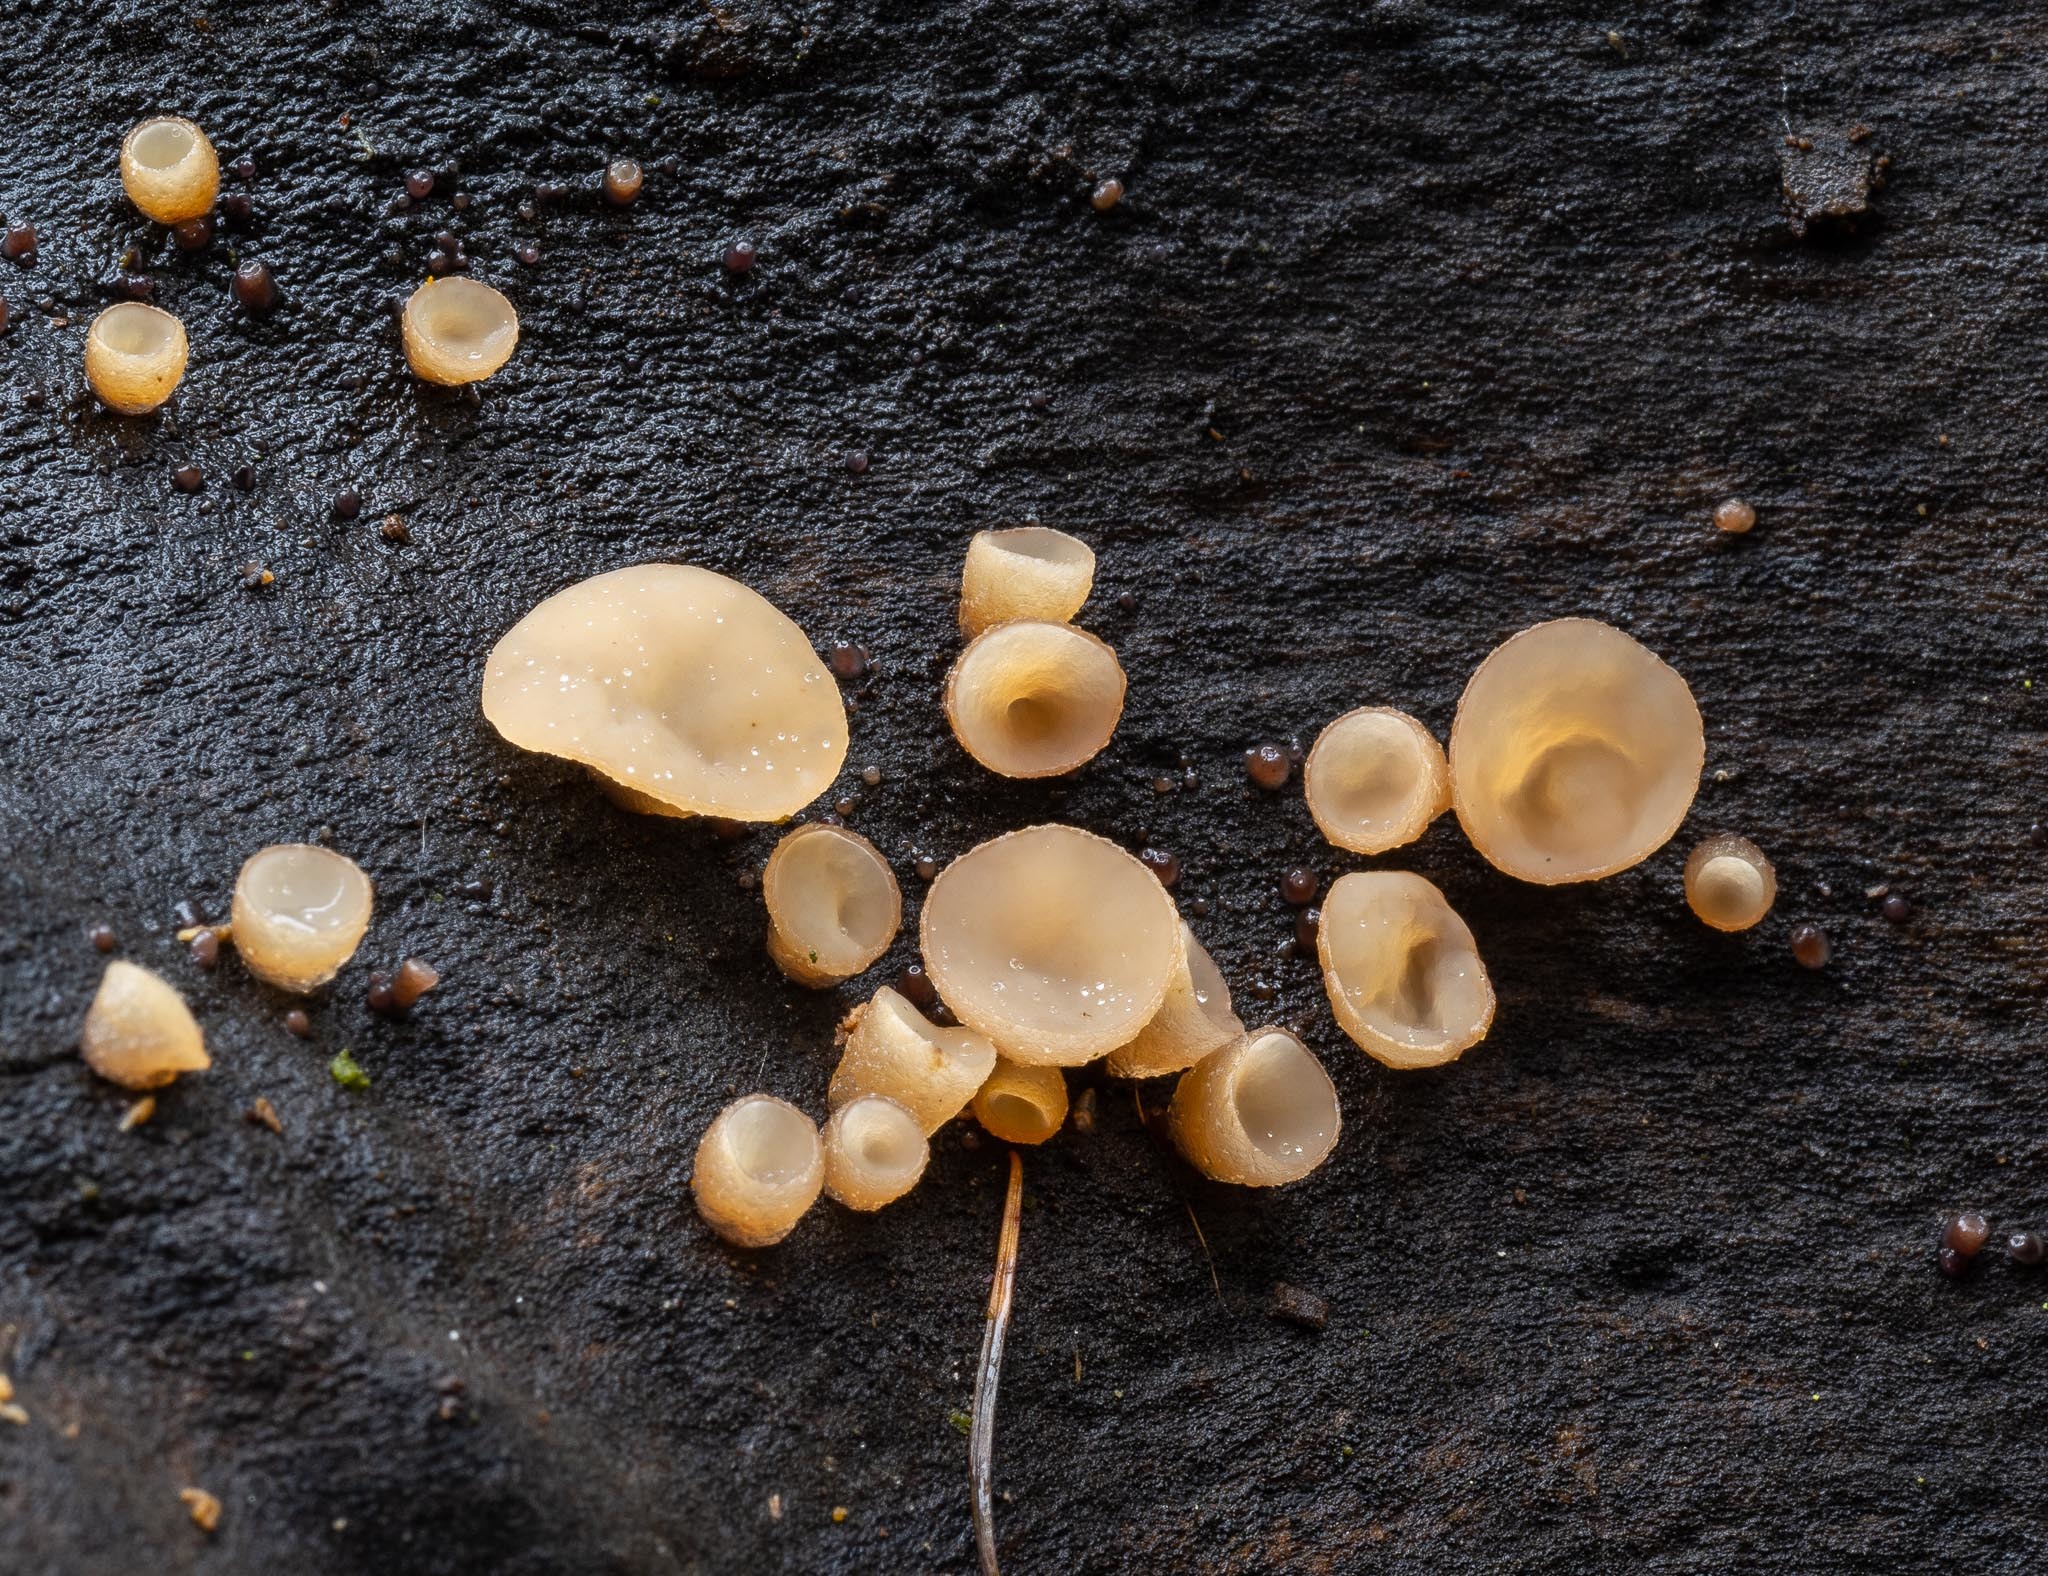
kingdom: Fungi
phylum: Ascomycota
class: Leotiomycetes
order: Helotiales
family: Gelatinodiscaceae
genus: Neobulgaria
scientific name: Neobulgaria pura
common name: Beech jelly-disc
